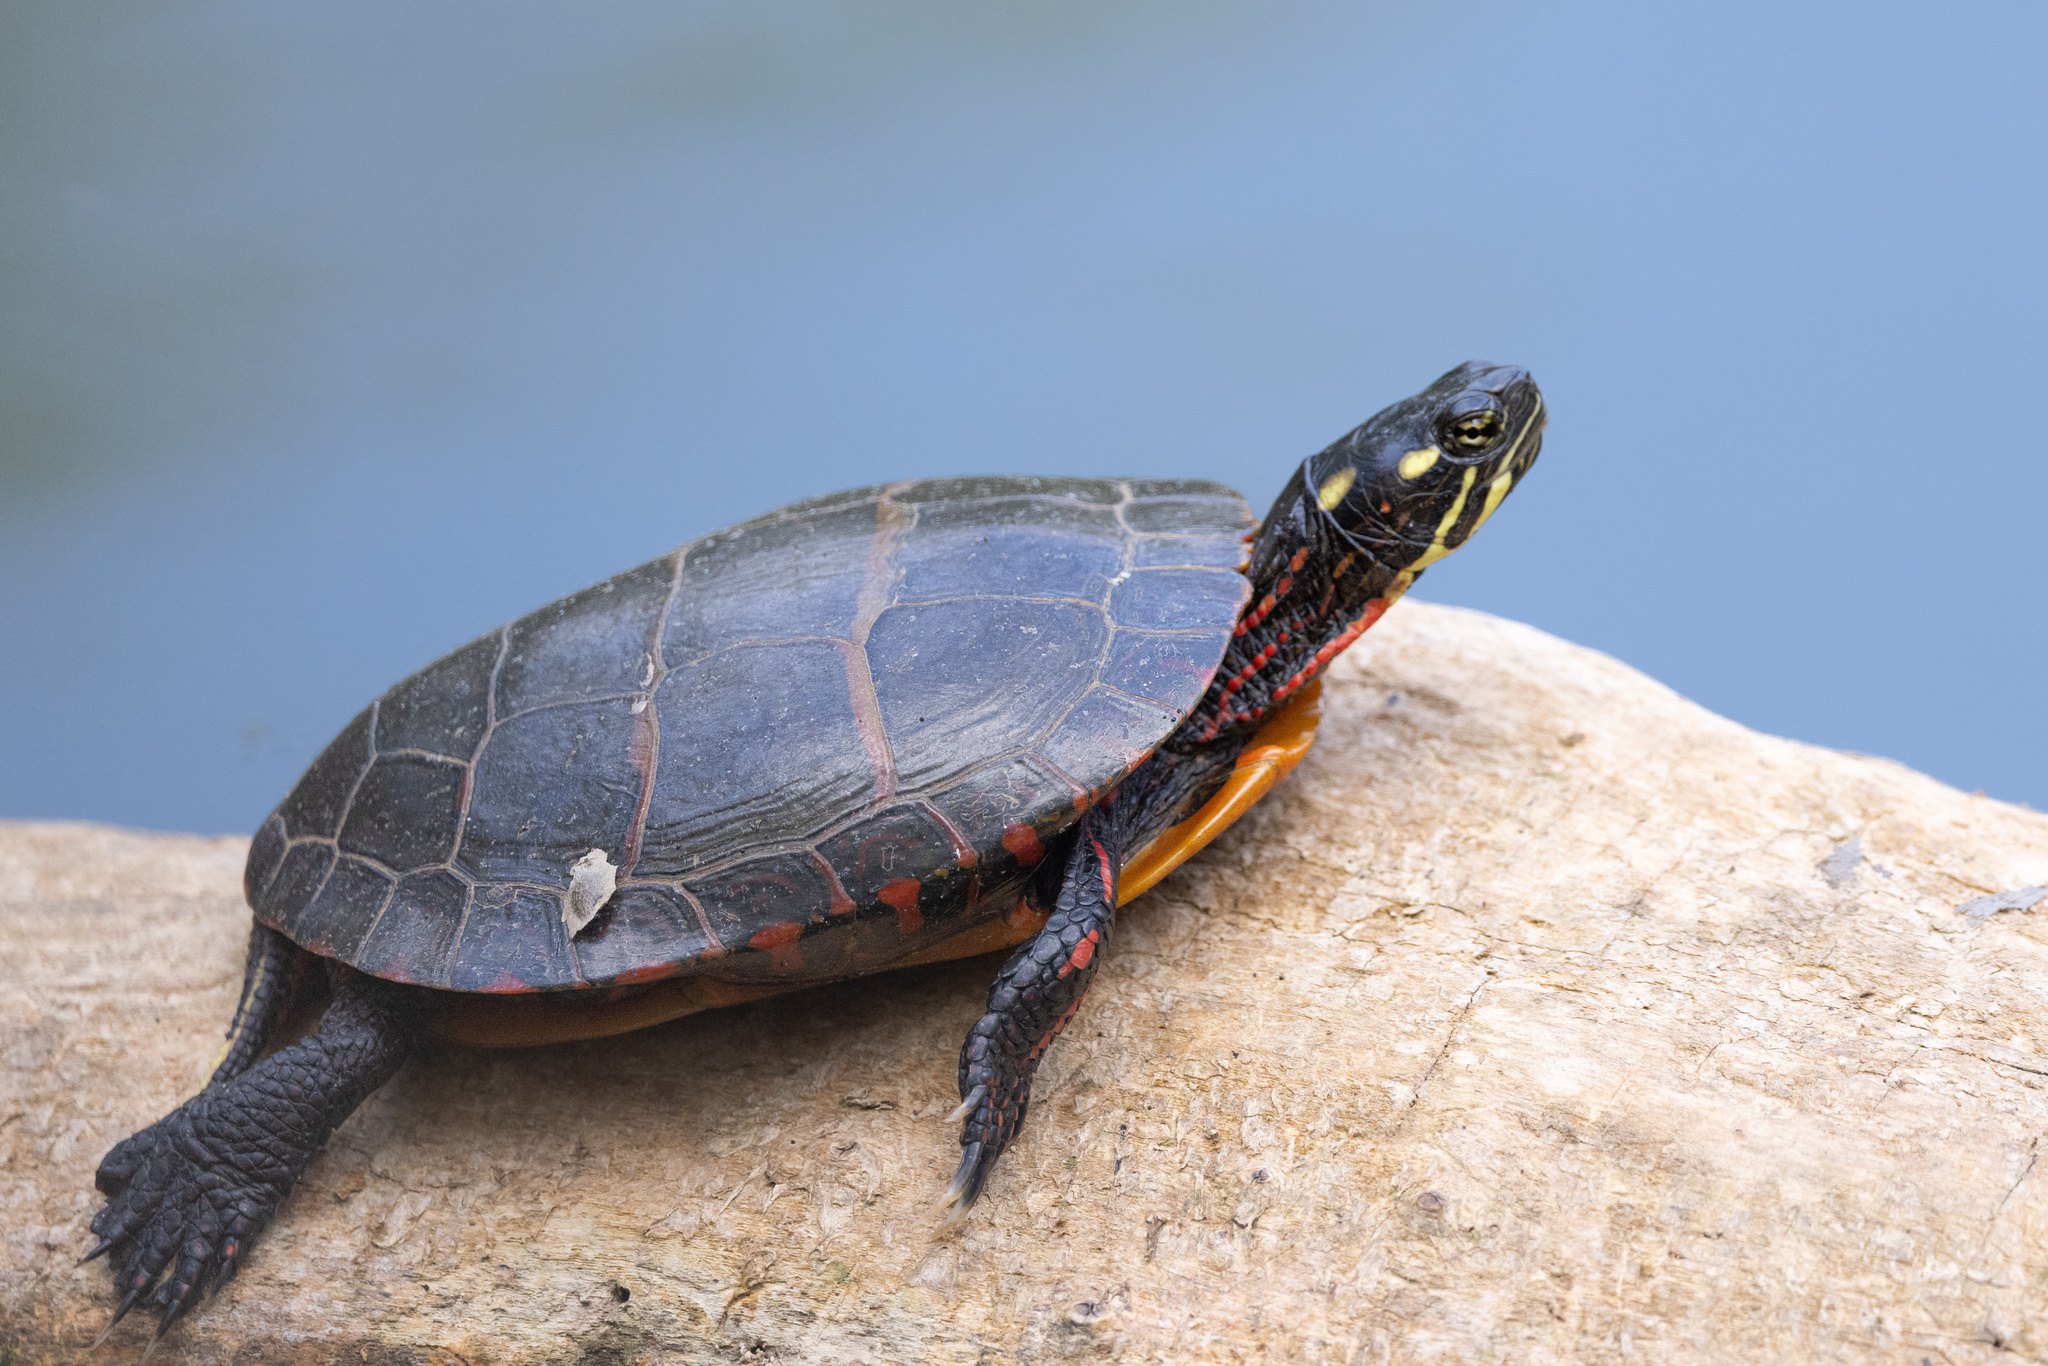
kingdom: Animalia
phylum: Chordata
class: Testudines
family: Emydidae
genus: Chrysemys
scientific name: Chrysemys picta
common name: Painted turtle
